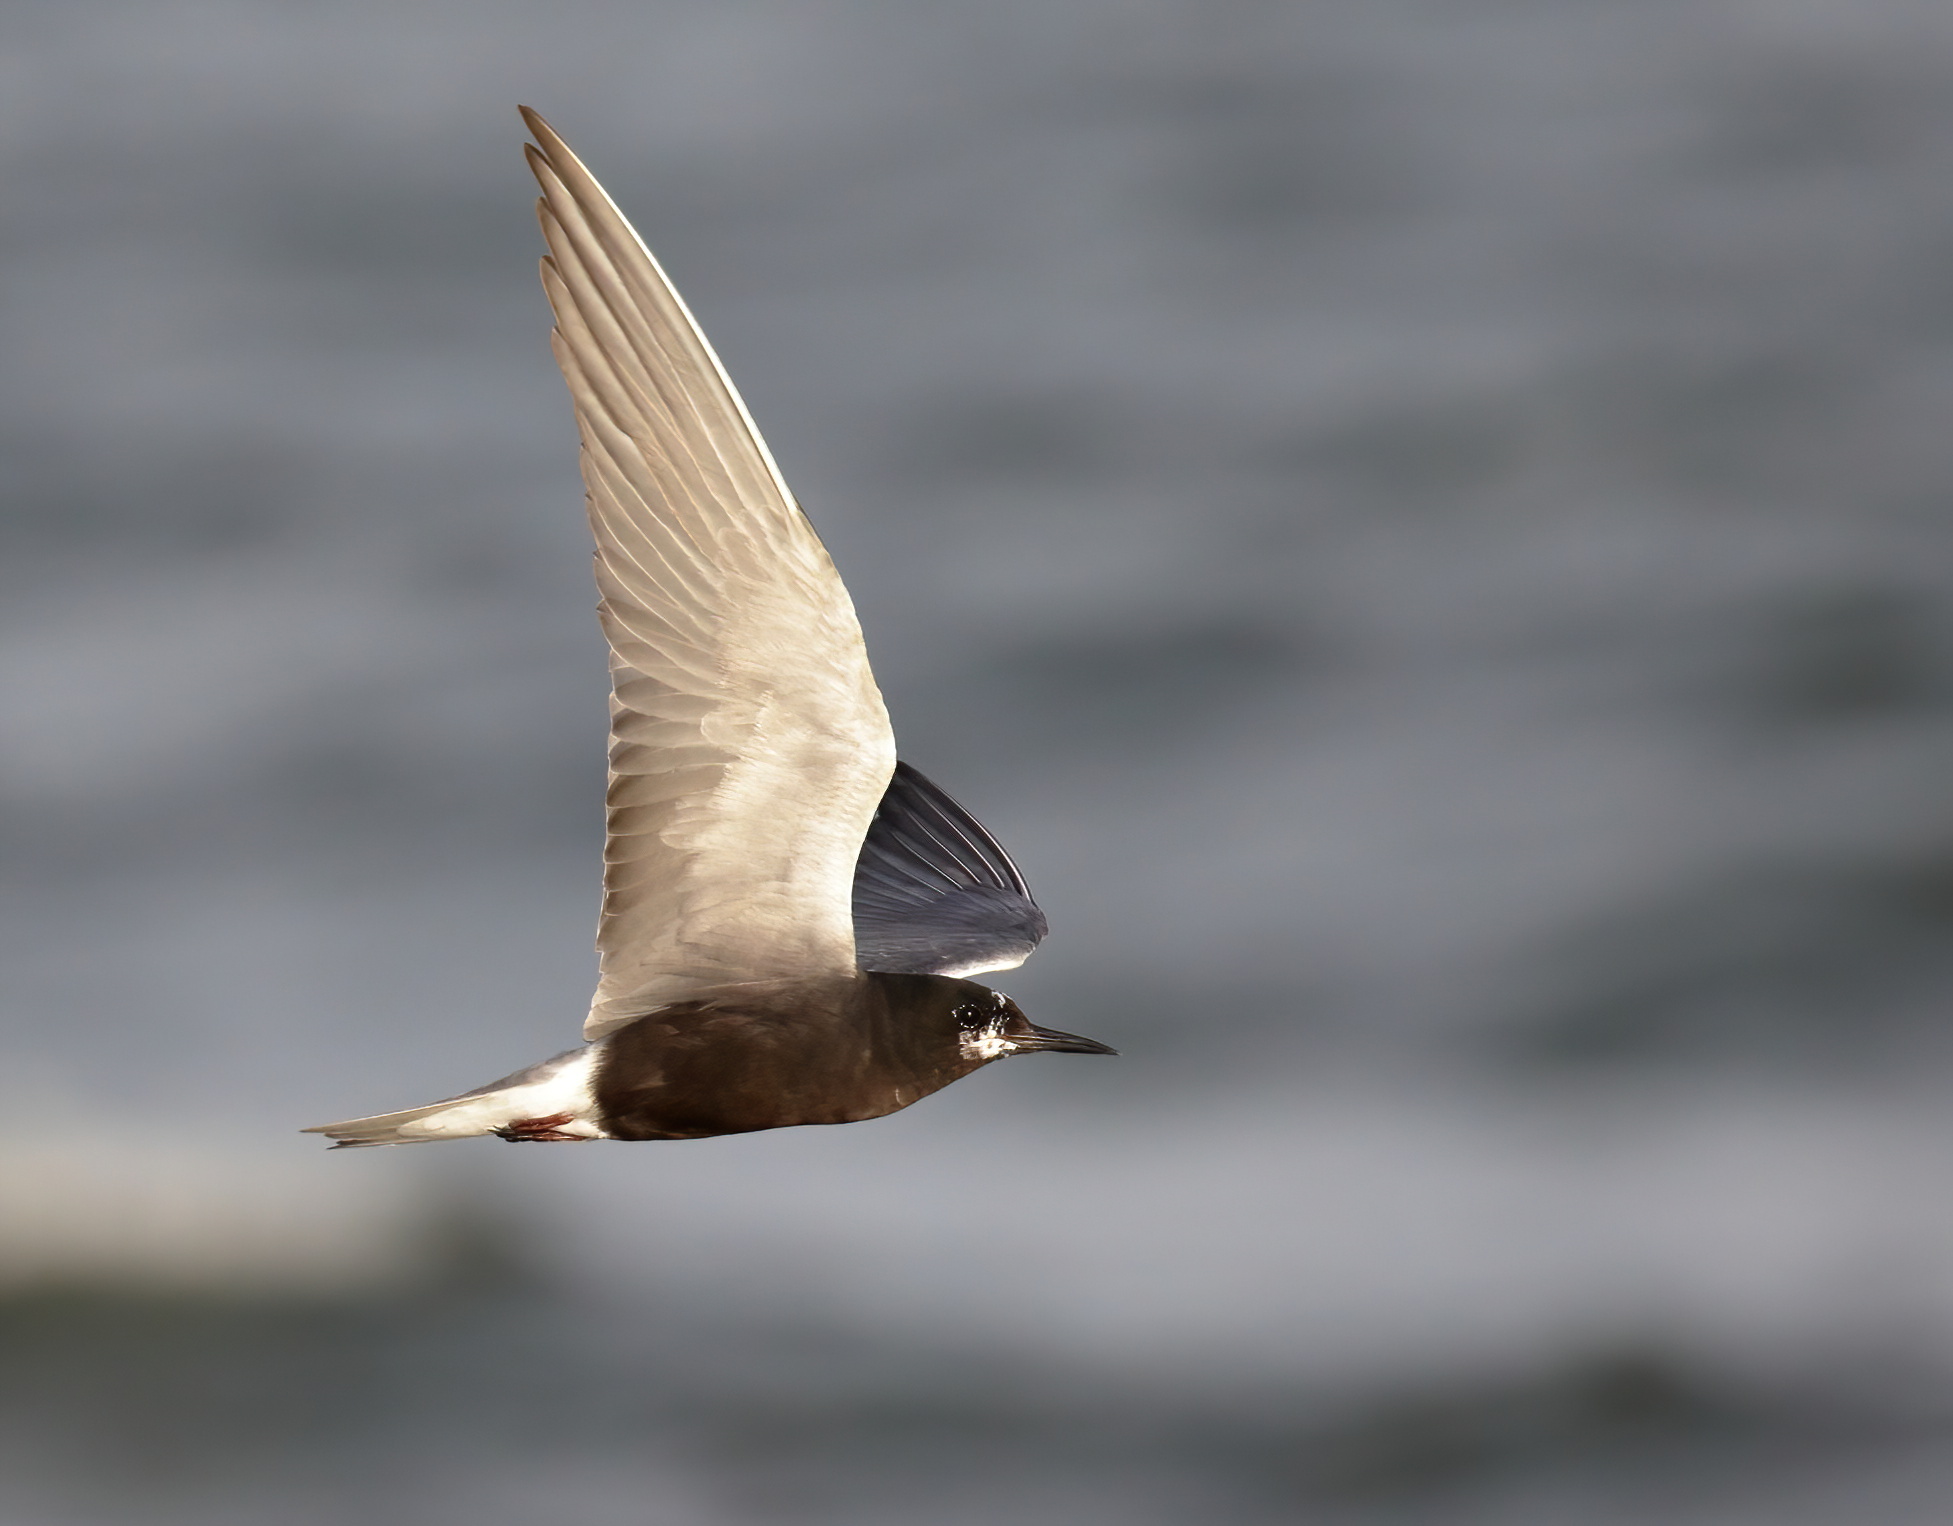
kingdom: Animalia
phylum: Chordata
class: Aves
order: Charadriiformes
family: Laridae
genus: Chlidonias
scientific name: Chlidonias niger
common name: Black tern
